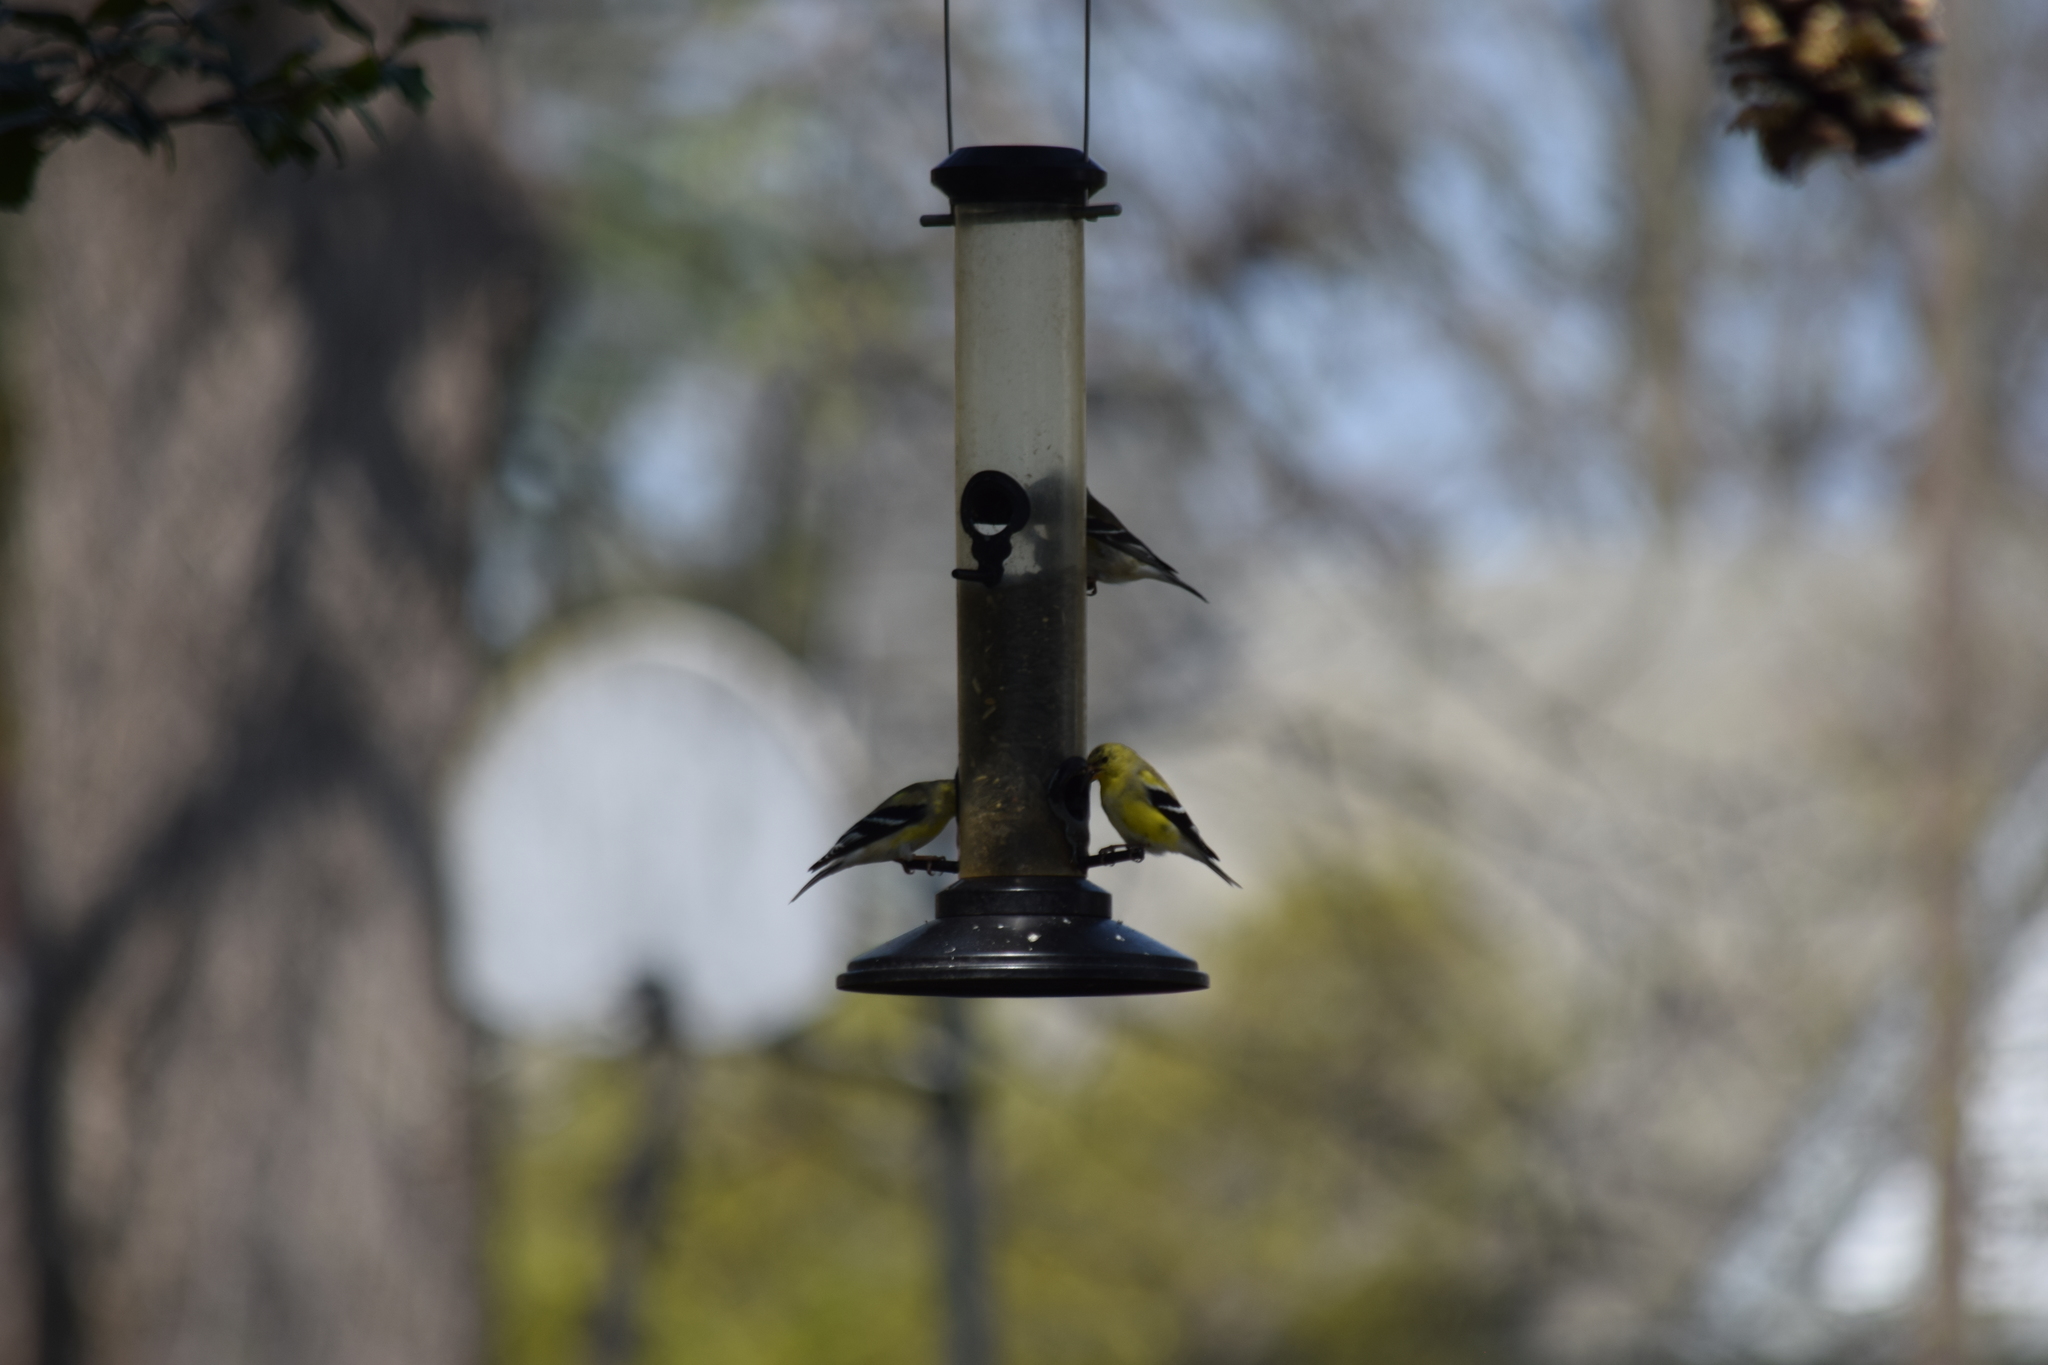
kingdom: Animalia
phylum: Chordata
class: Aves
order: Passeriformes
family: Fringillidae
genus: Spinus
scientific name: Spinus tristis
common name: American goldfinch
